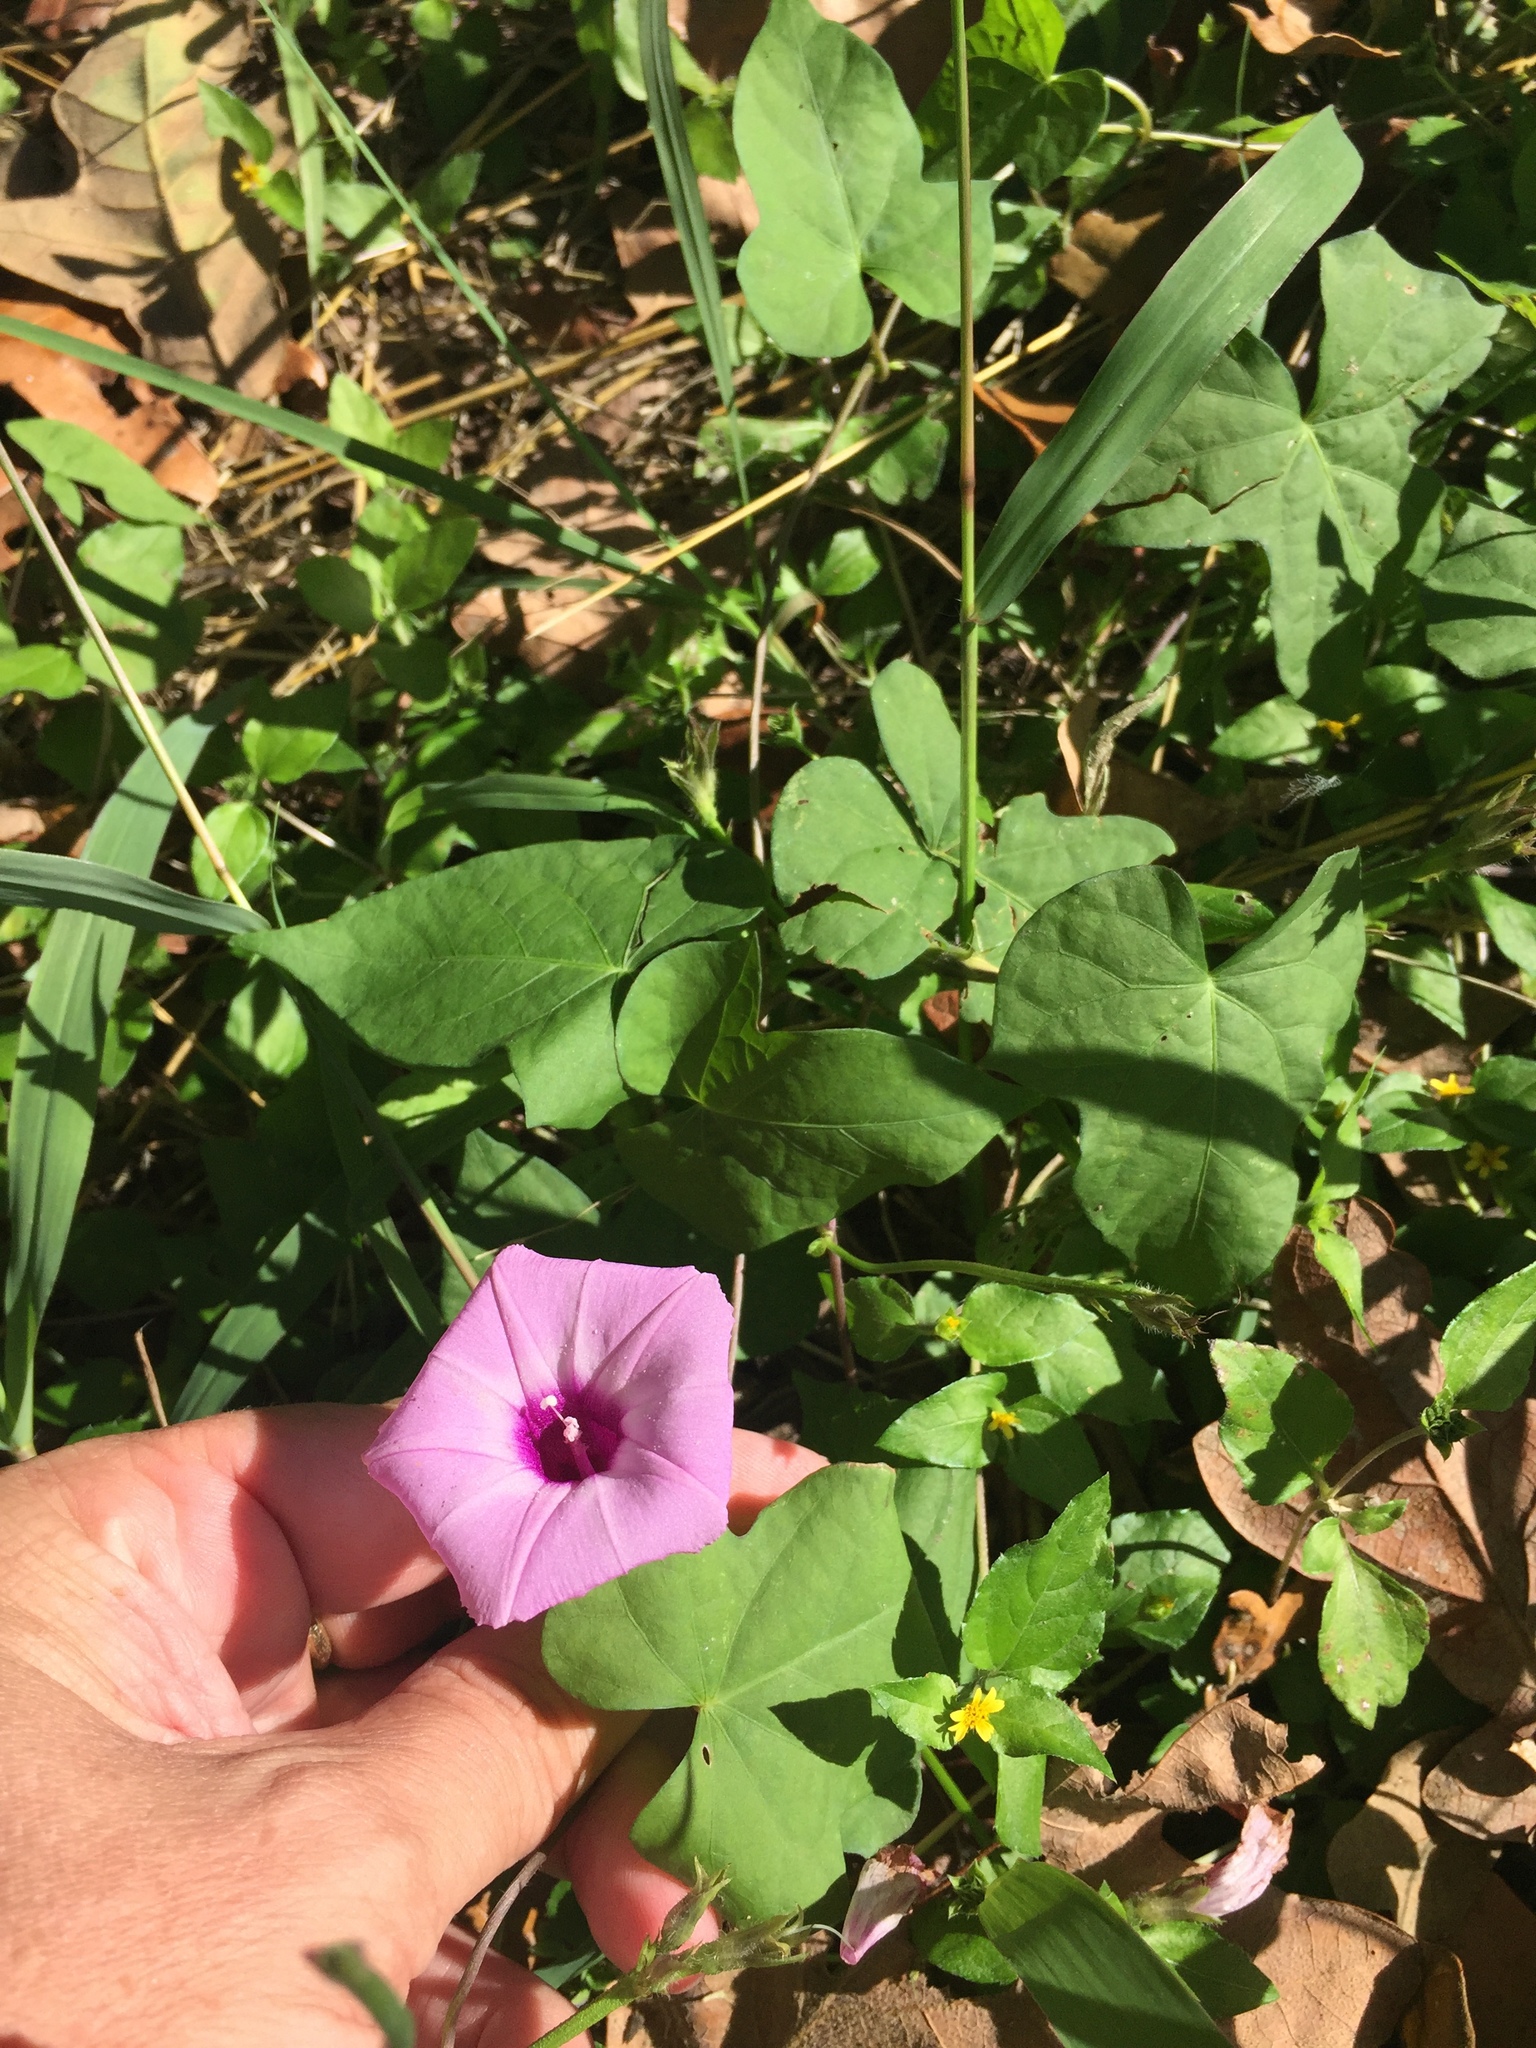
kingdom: Plantae
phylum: Tracheophyta
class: Magnoliopsida
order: Solanales
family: Convolvulaceae
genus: Ipomoea
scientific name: Ipomoea cordatotriloba
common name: Cotton morning glory
